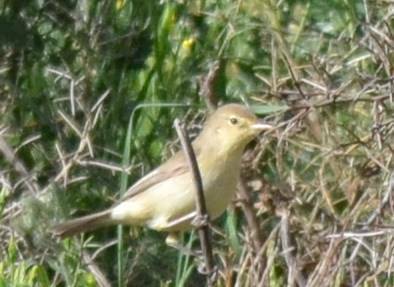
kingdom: Animalia
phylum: Chordata
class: Aves
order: Passeriformes
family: Acrocephalidae
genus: Hippolais
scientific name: Hippolais polyglotta
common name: Melodious warbler
